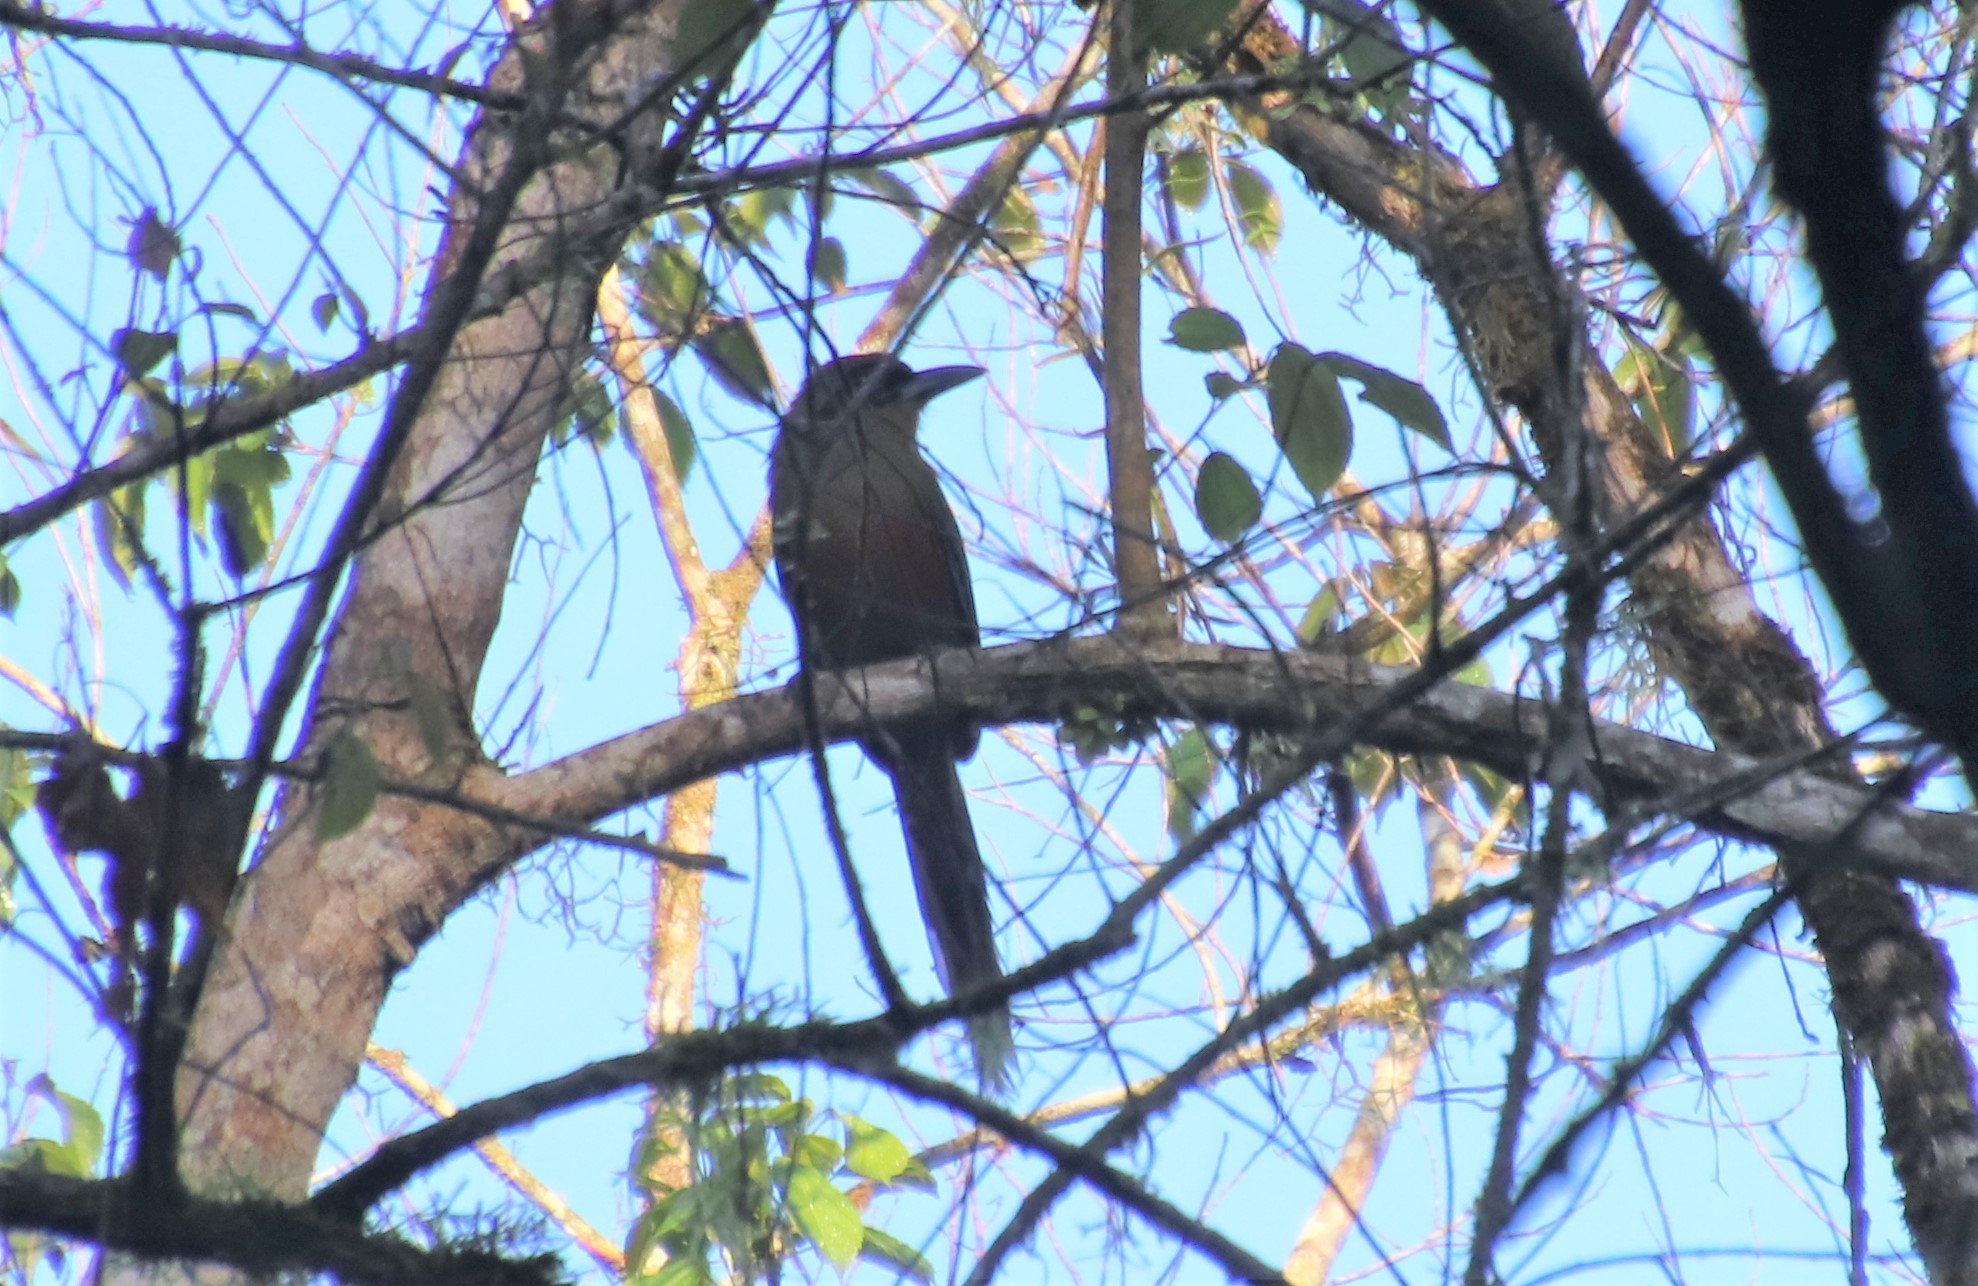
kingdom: Animalia
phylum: Chordata
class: Aves
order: Coraciiformes
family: Momotidae
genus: Baryphthengus
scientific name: Baryphthengus ruficapillus
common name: Rufous-capped motmot
